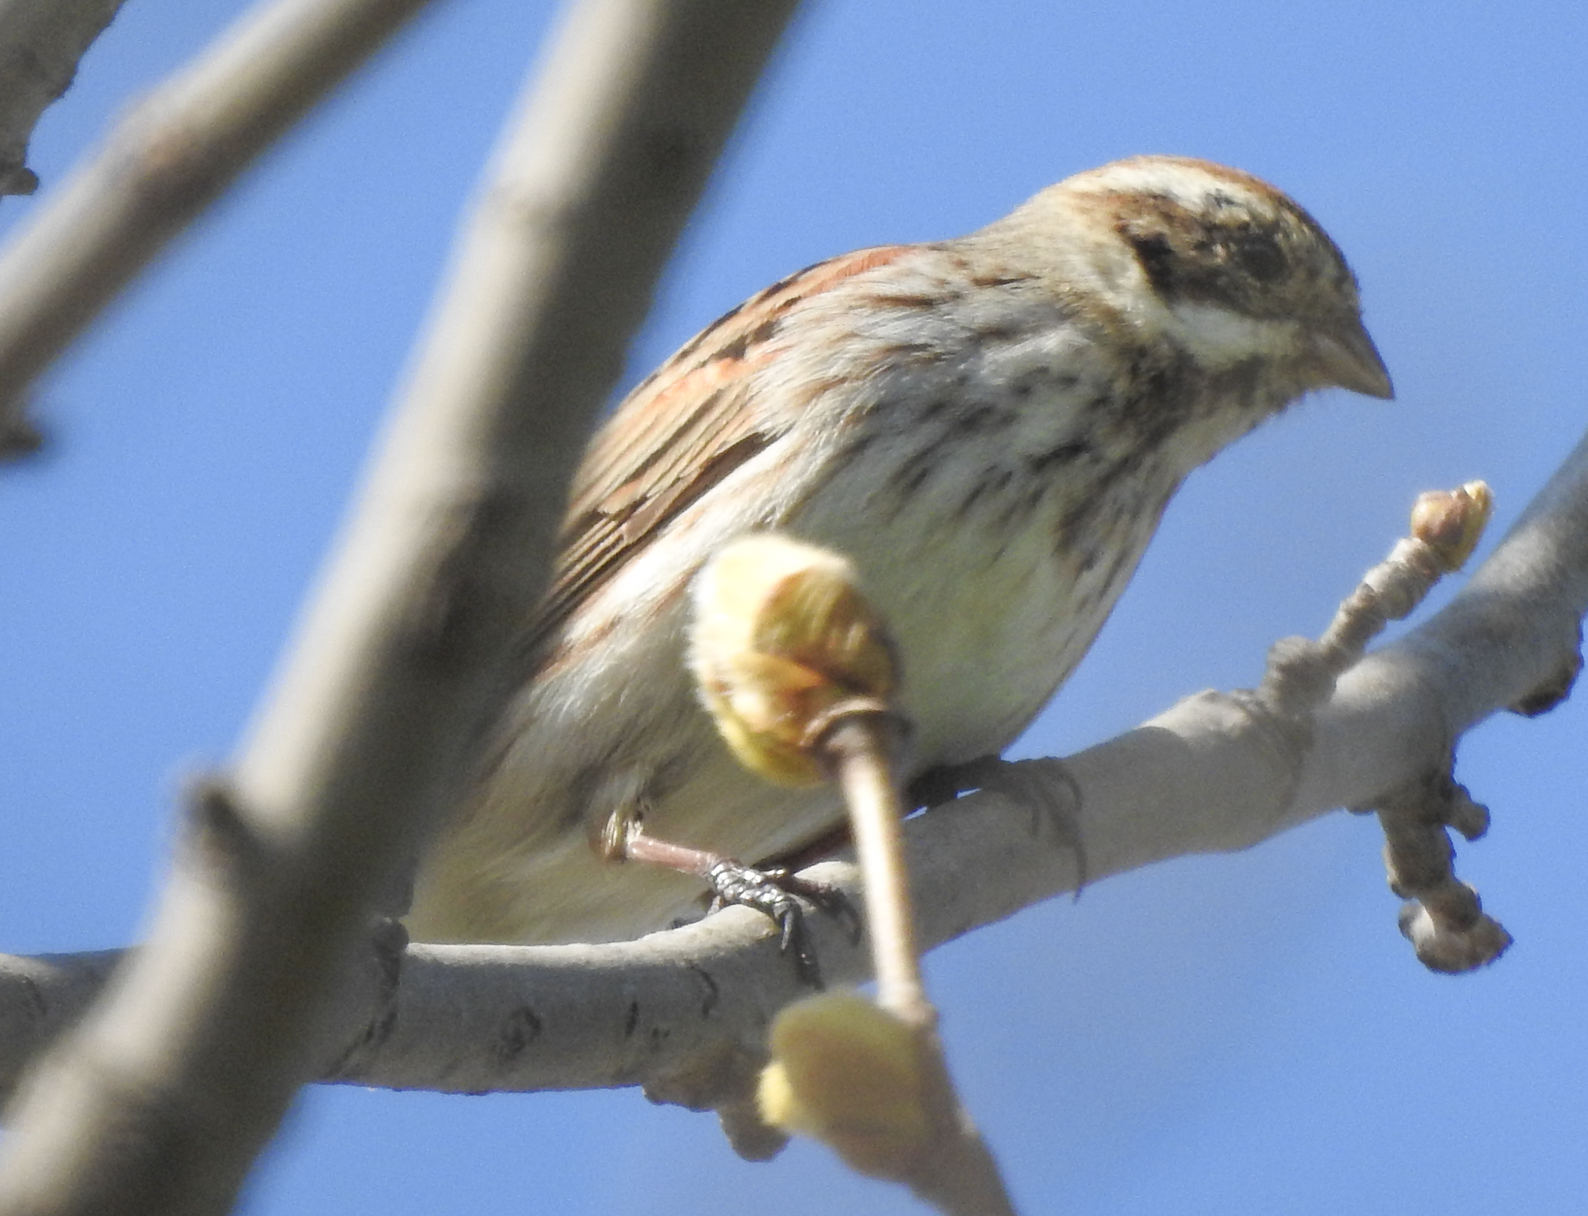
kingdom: Animalia
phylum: Chordata
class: Aves
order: Passeriformes
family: Emberizidae
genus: Emberiza
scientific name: Emberiza schoeniclus
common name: Reed bunting
